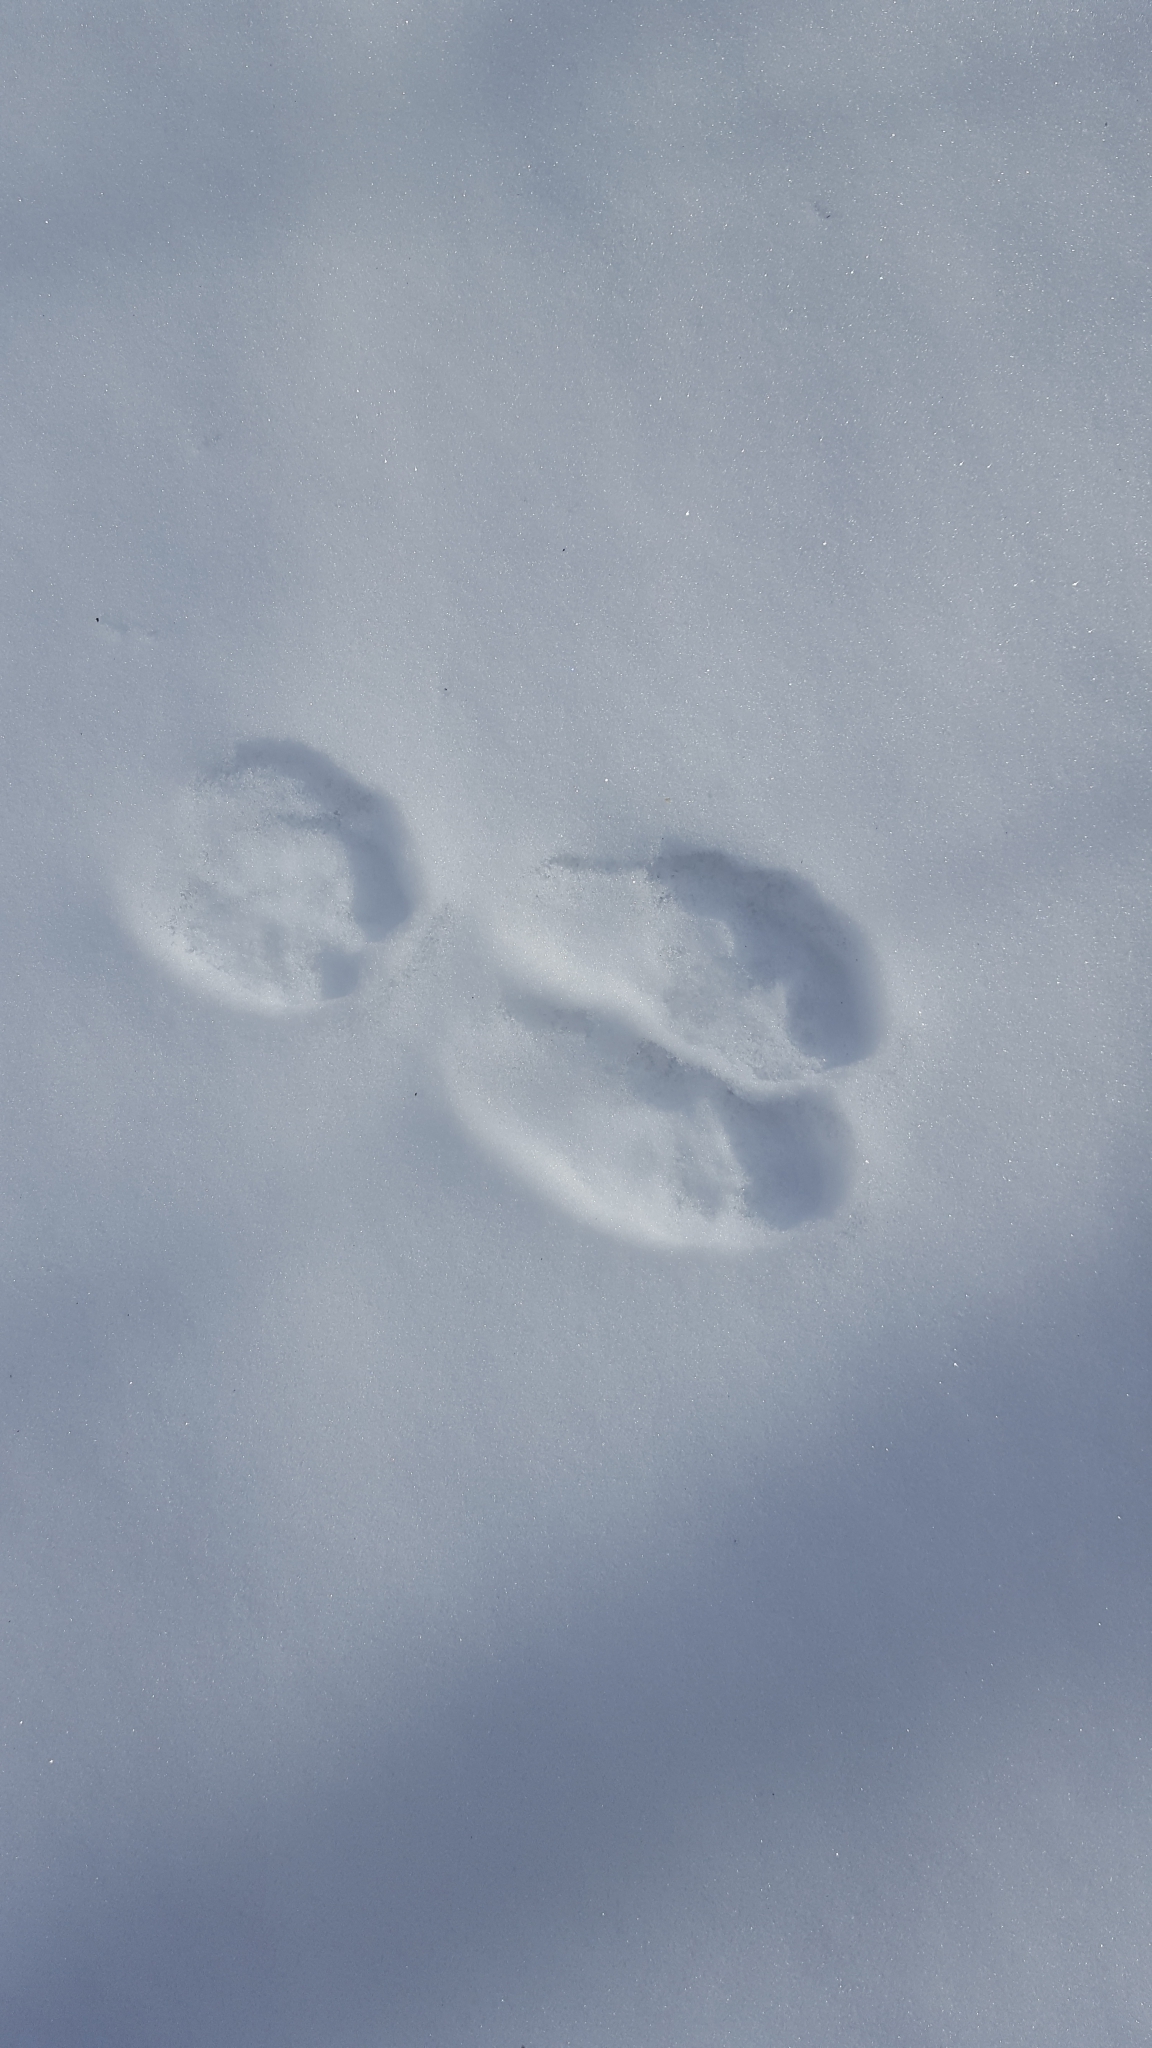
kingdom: Animalia
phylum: Chordata
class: Mammalia
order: Lagomorpha
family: Leporidae
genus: Lepus
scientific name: Lepus americanus
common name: Snowshoe hare
